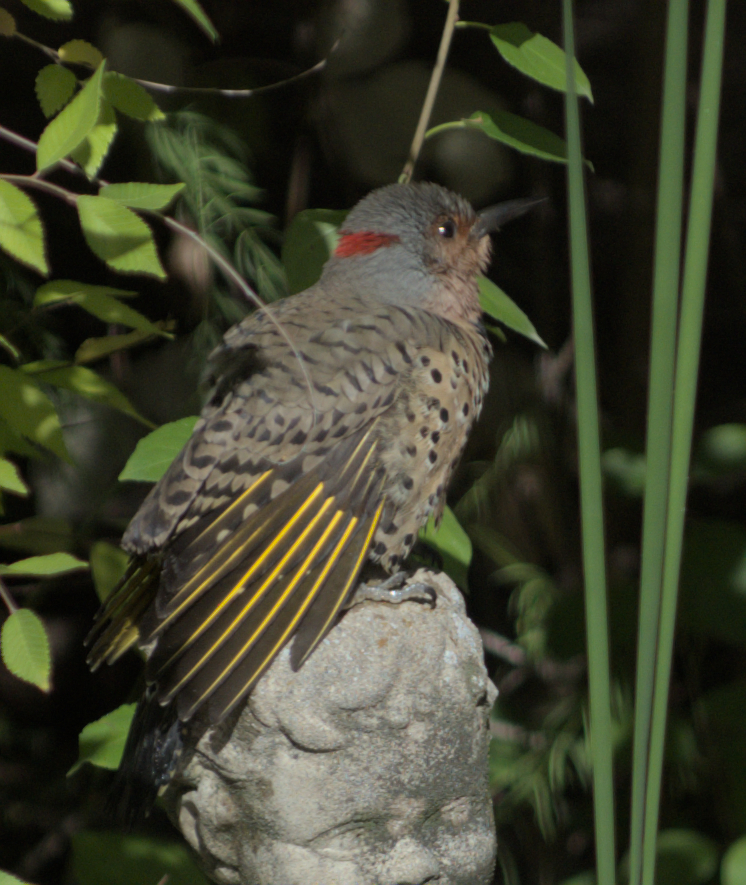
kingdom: Animalia
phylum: Chordata
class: Aves
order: Piciformes
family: Picidae
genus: Colaptes
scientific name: Colaptes auratus
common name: Northern flicker
